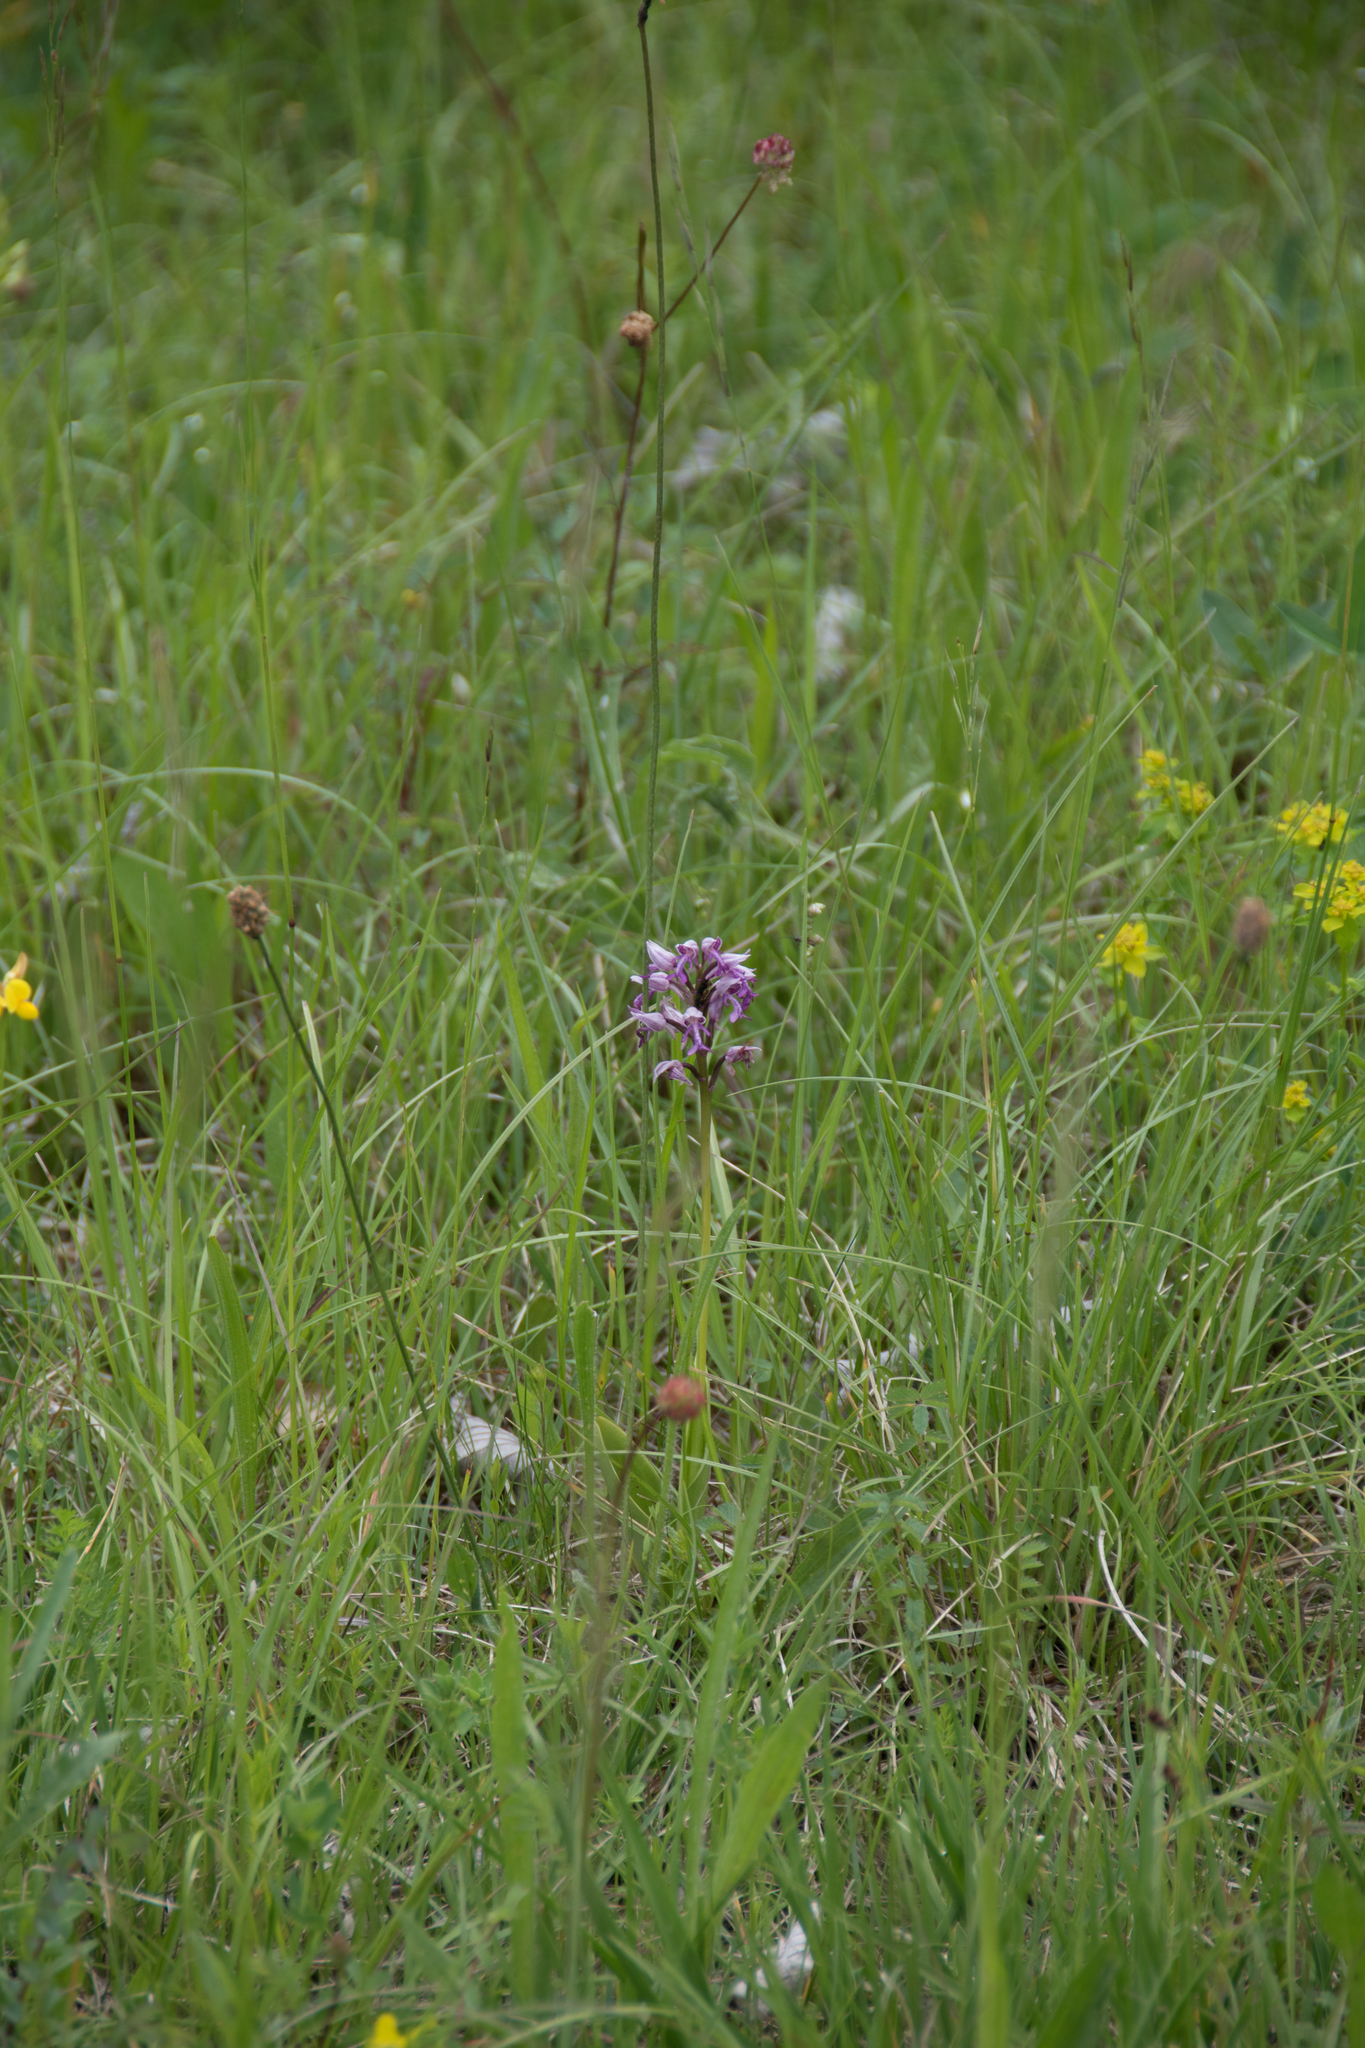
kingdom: Plantae
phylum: Tracheophyta
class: Liliopsida
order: Asparagales
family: Orchidaceae
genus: Orchis
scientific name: Orchis militaris
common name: Military orchid
